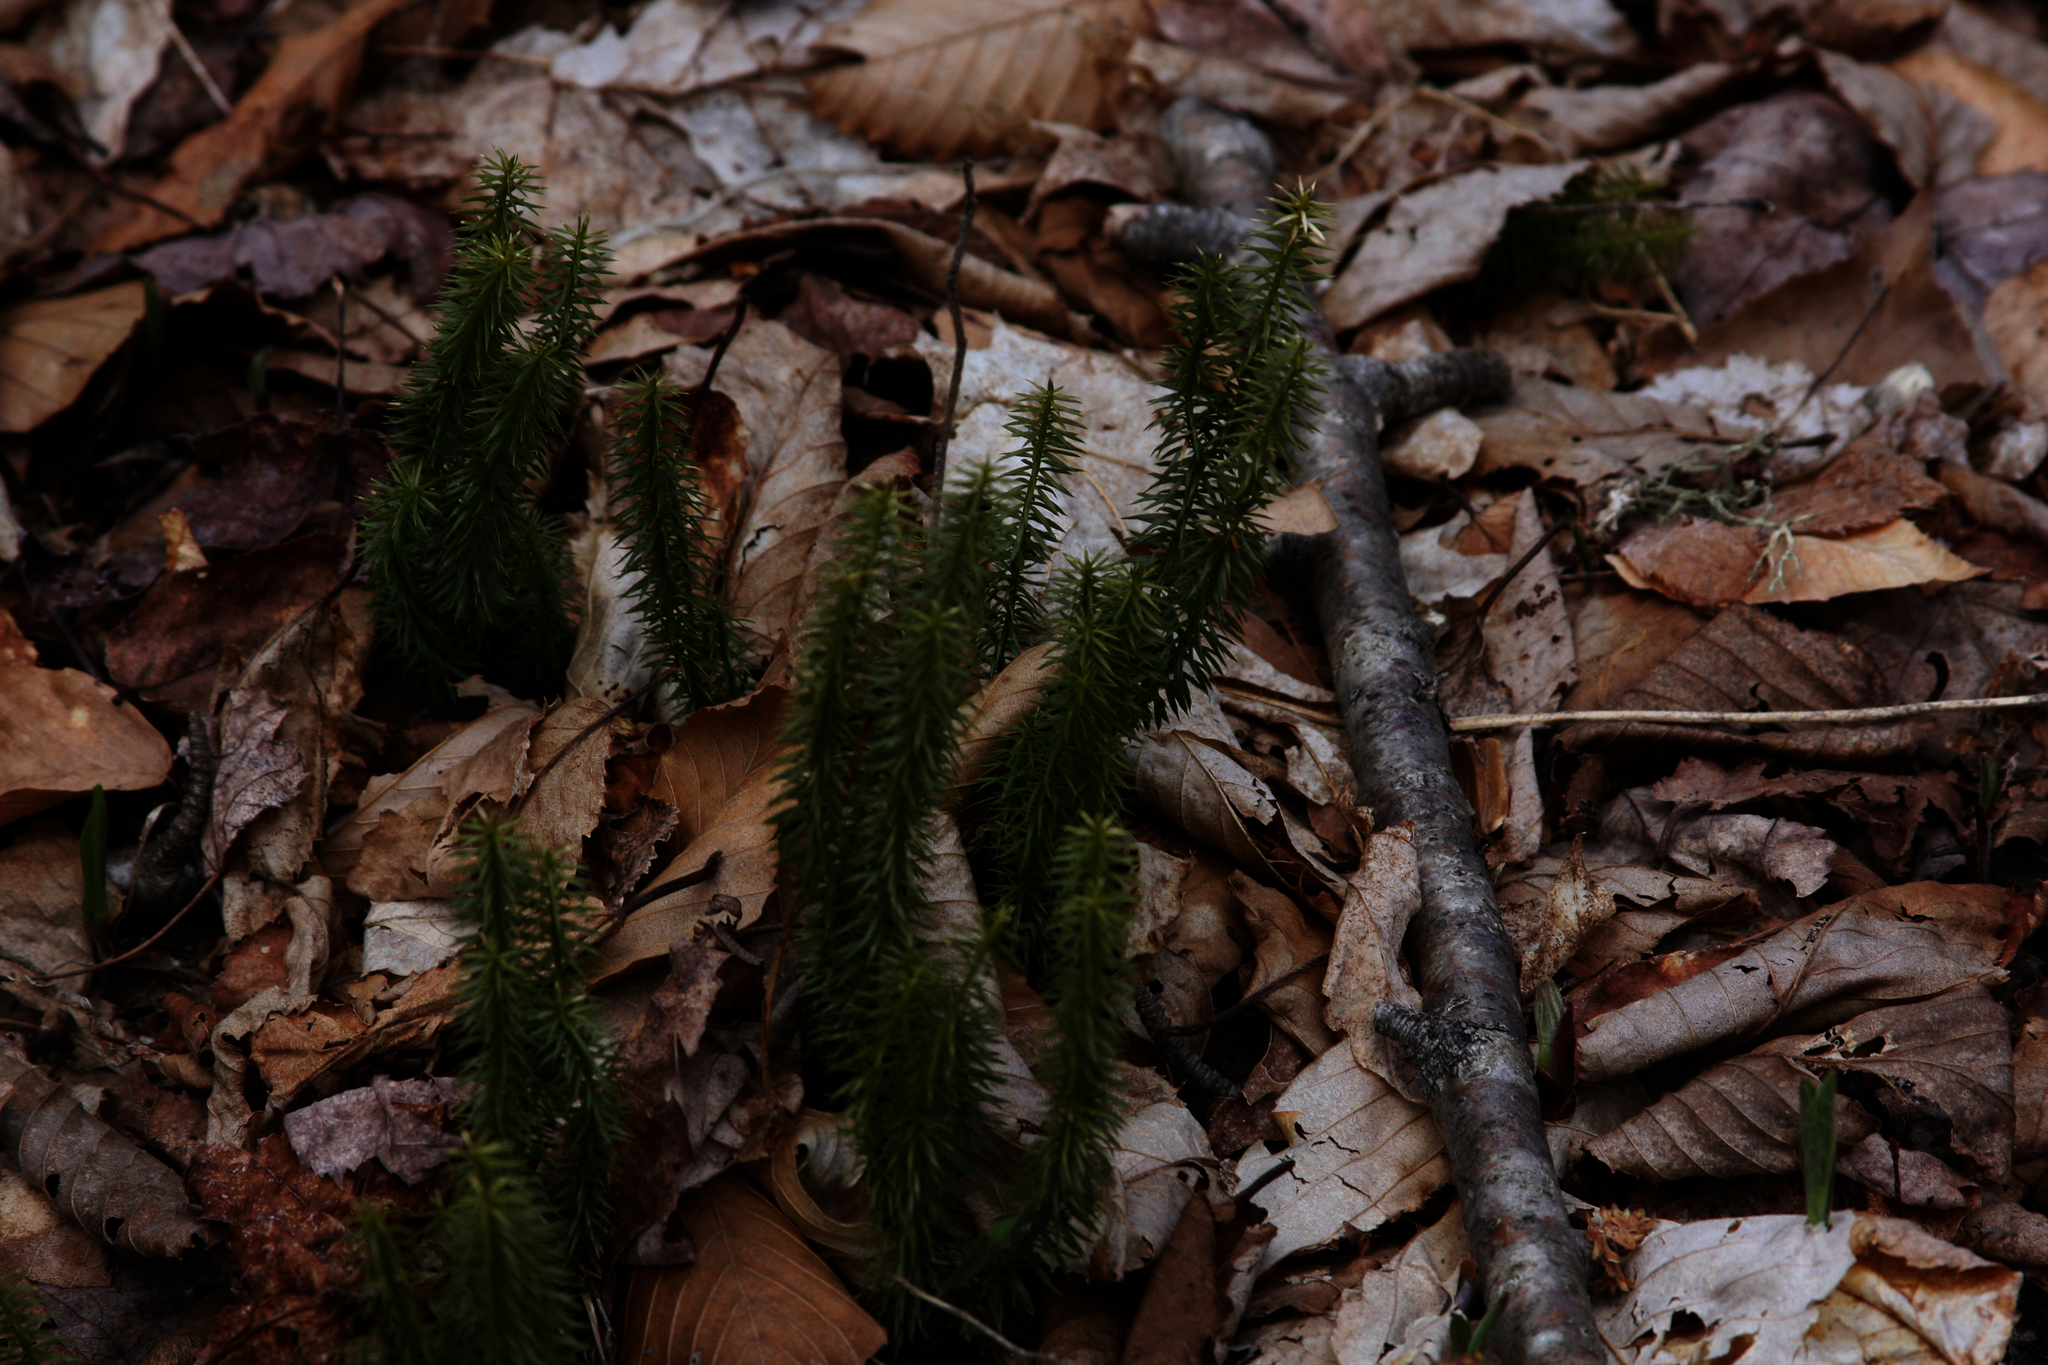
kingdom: Plantae
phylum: Tracheophyta
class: Lycopodiopsida
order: Lycopodiales
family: Lycopodiaceae
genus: Huperzia
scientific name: Huperzia lucidula
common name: Shining clubmoss
